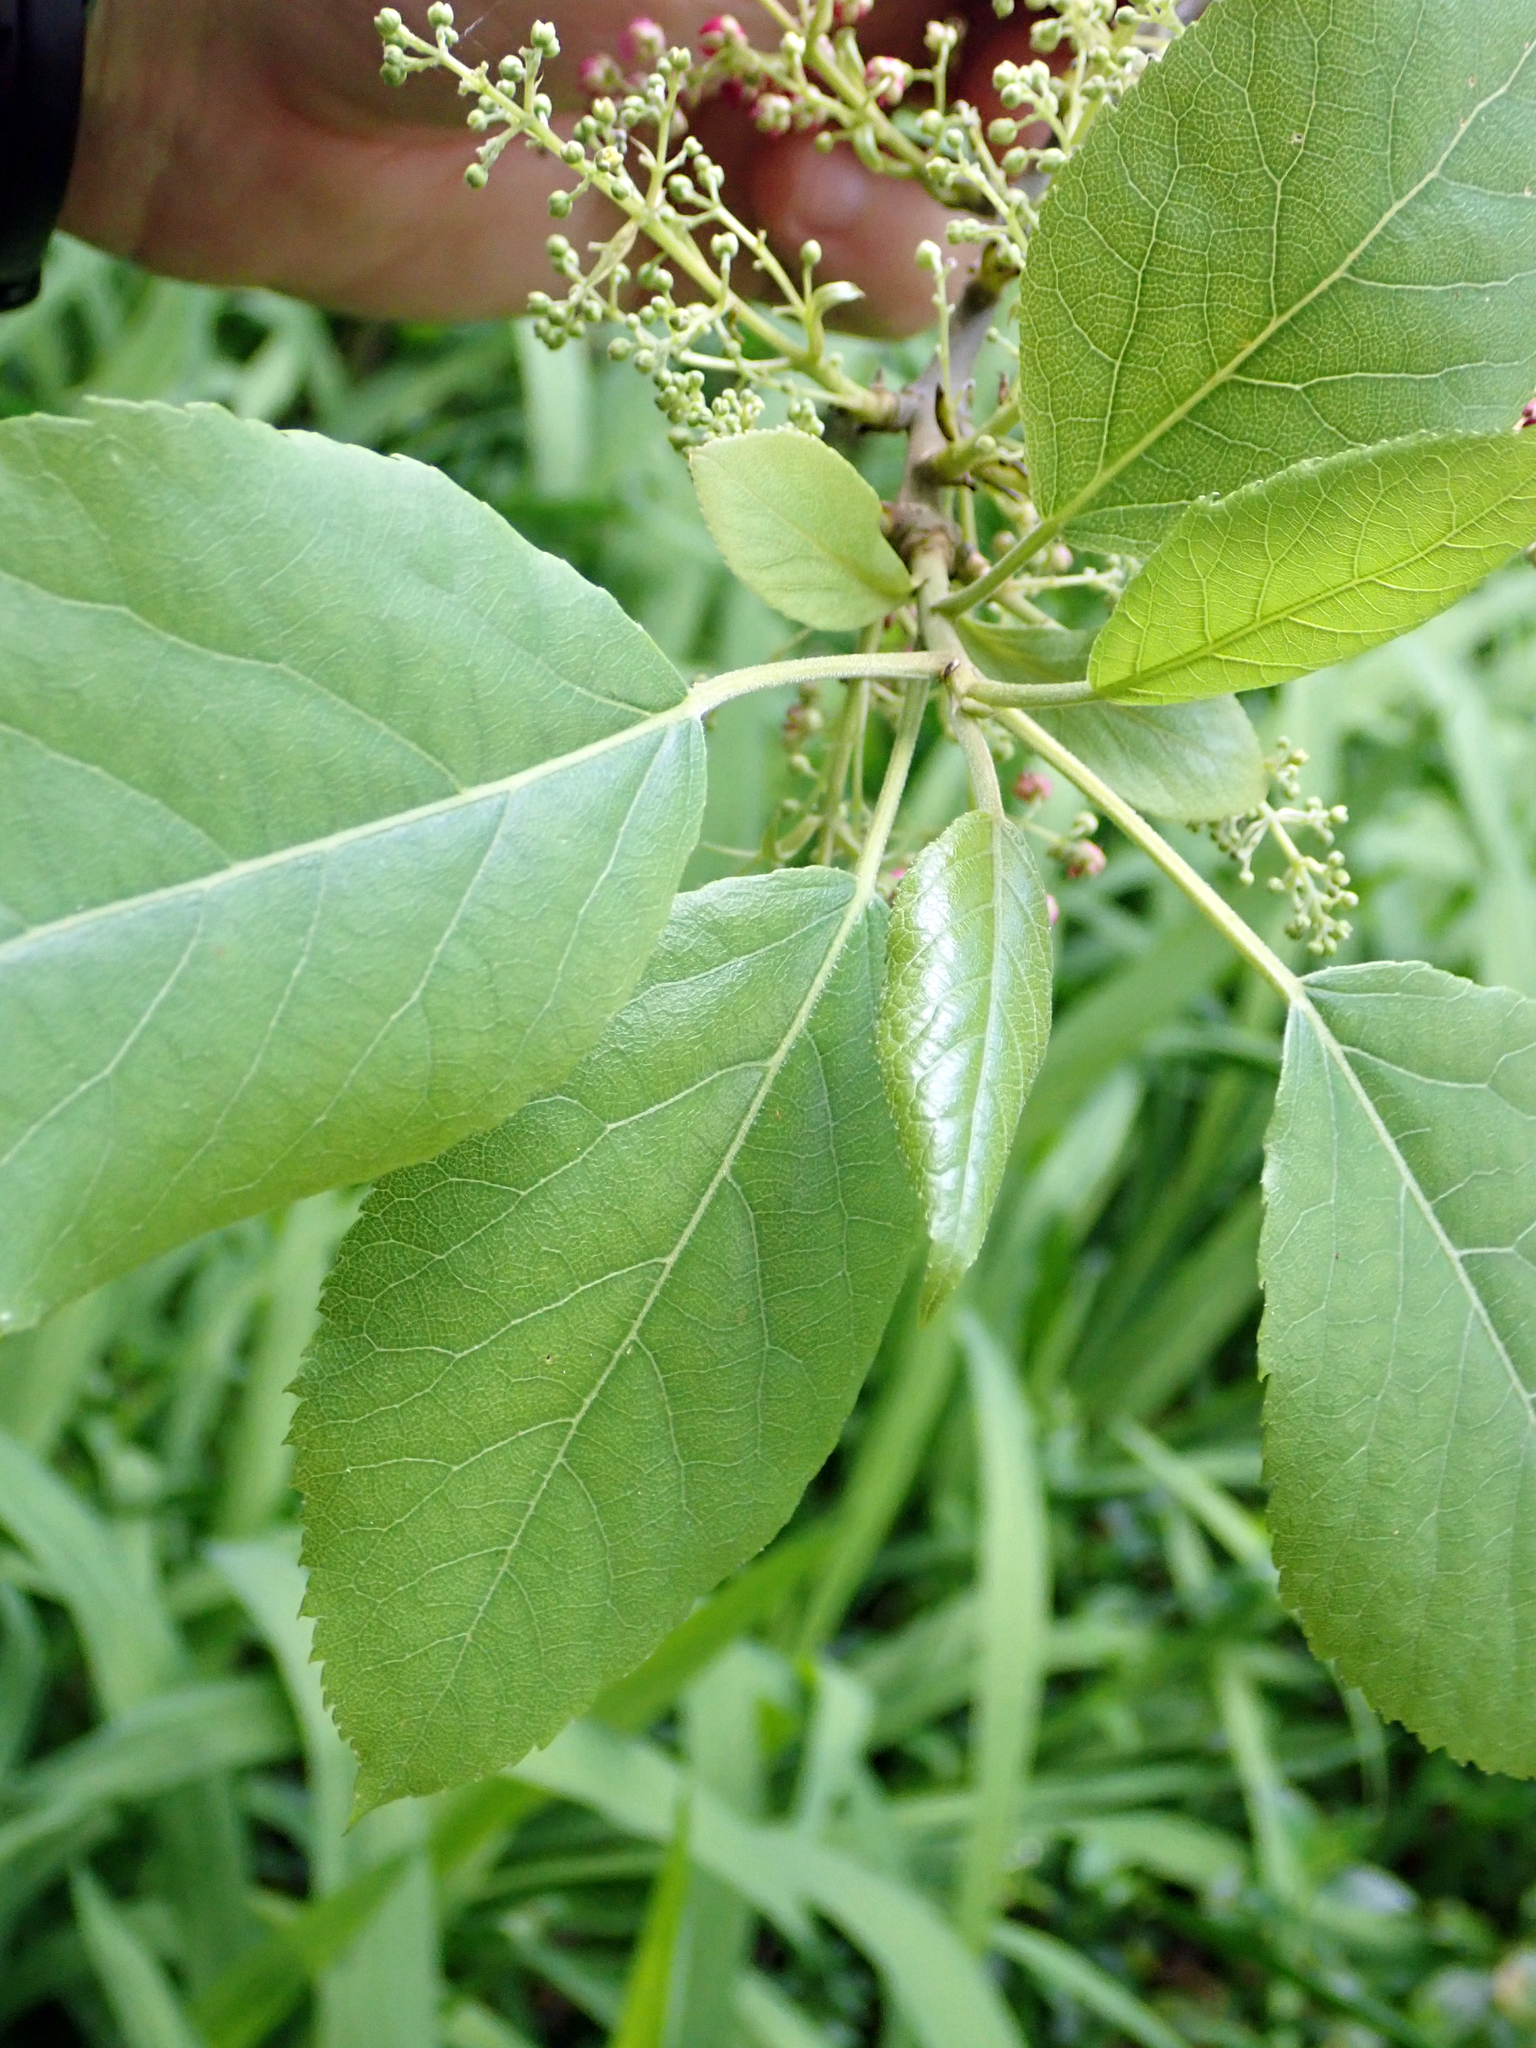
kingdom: Plantae
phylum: Tracheophyta
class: Magnoliopsida
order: Oxalidales
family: Elaeocarpaceae
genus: Aristotelia
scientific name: Aristotelia serrata
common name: New zealand wineberry
